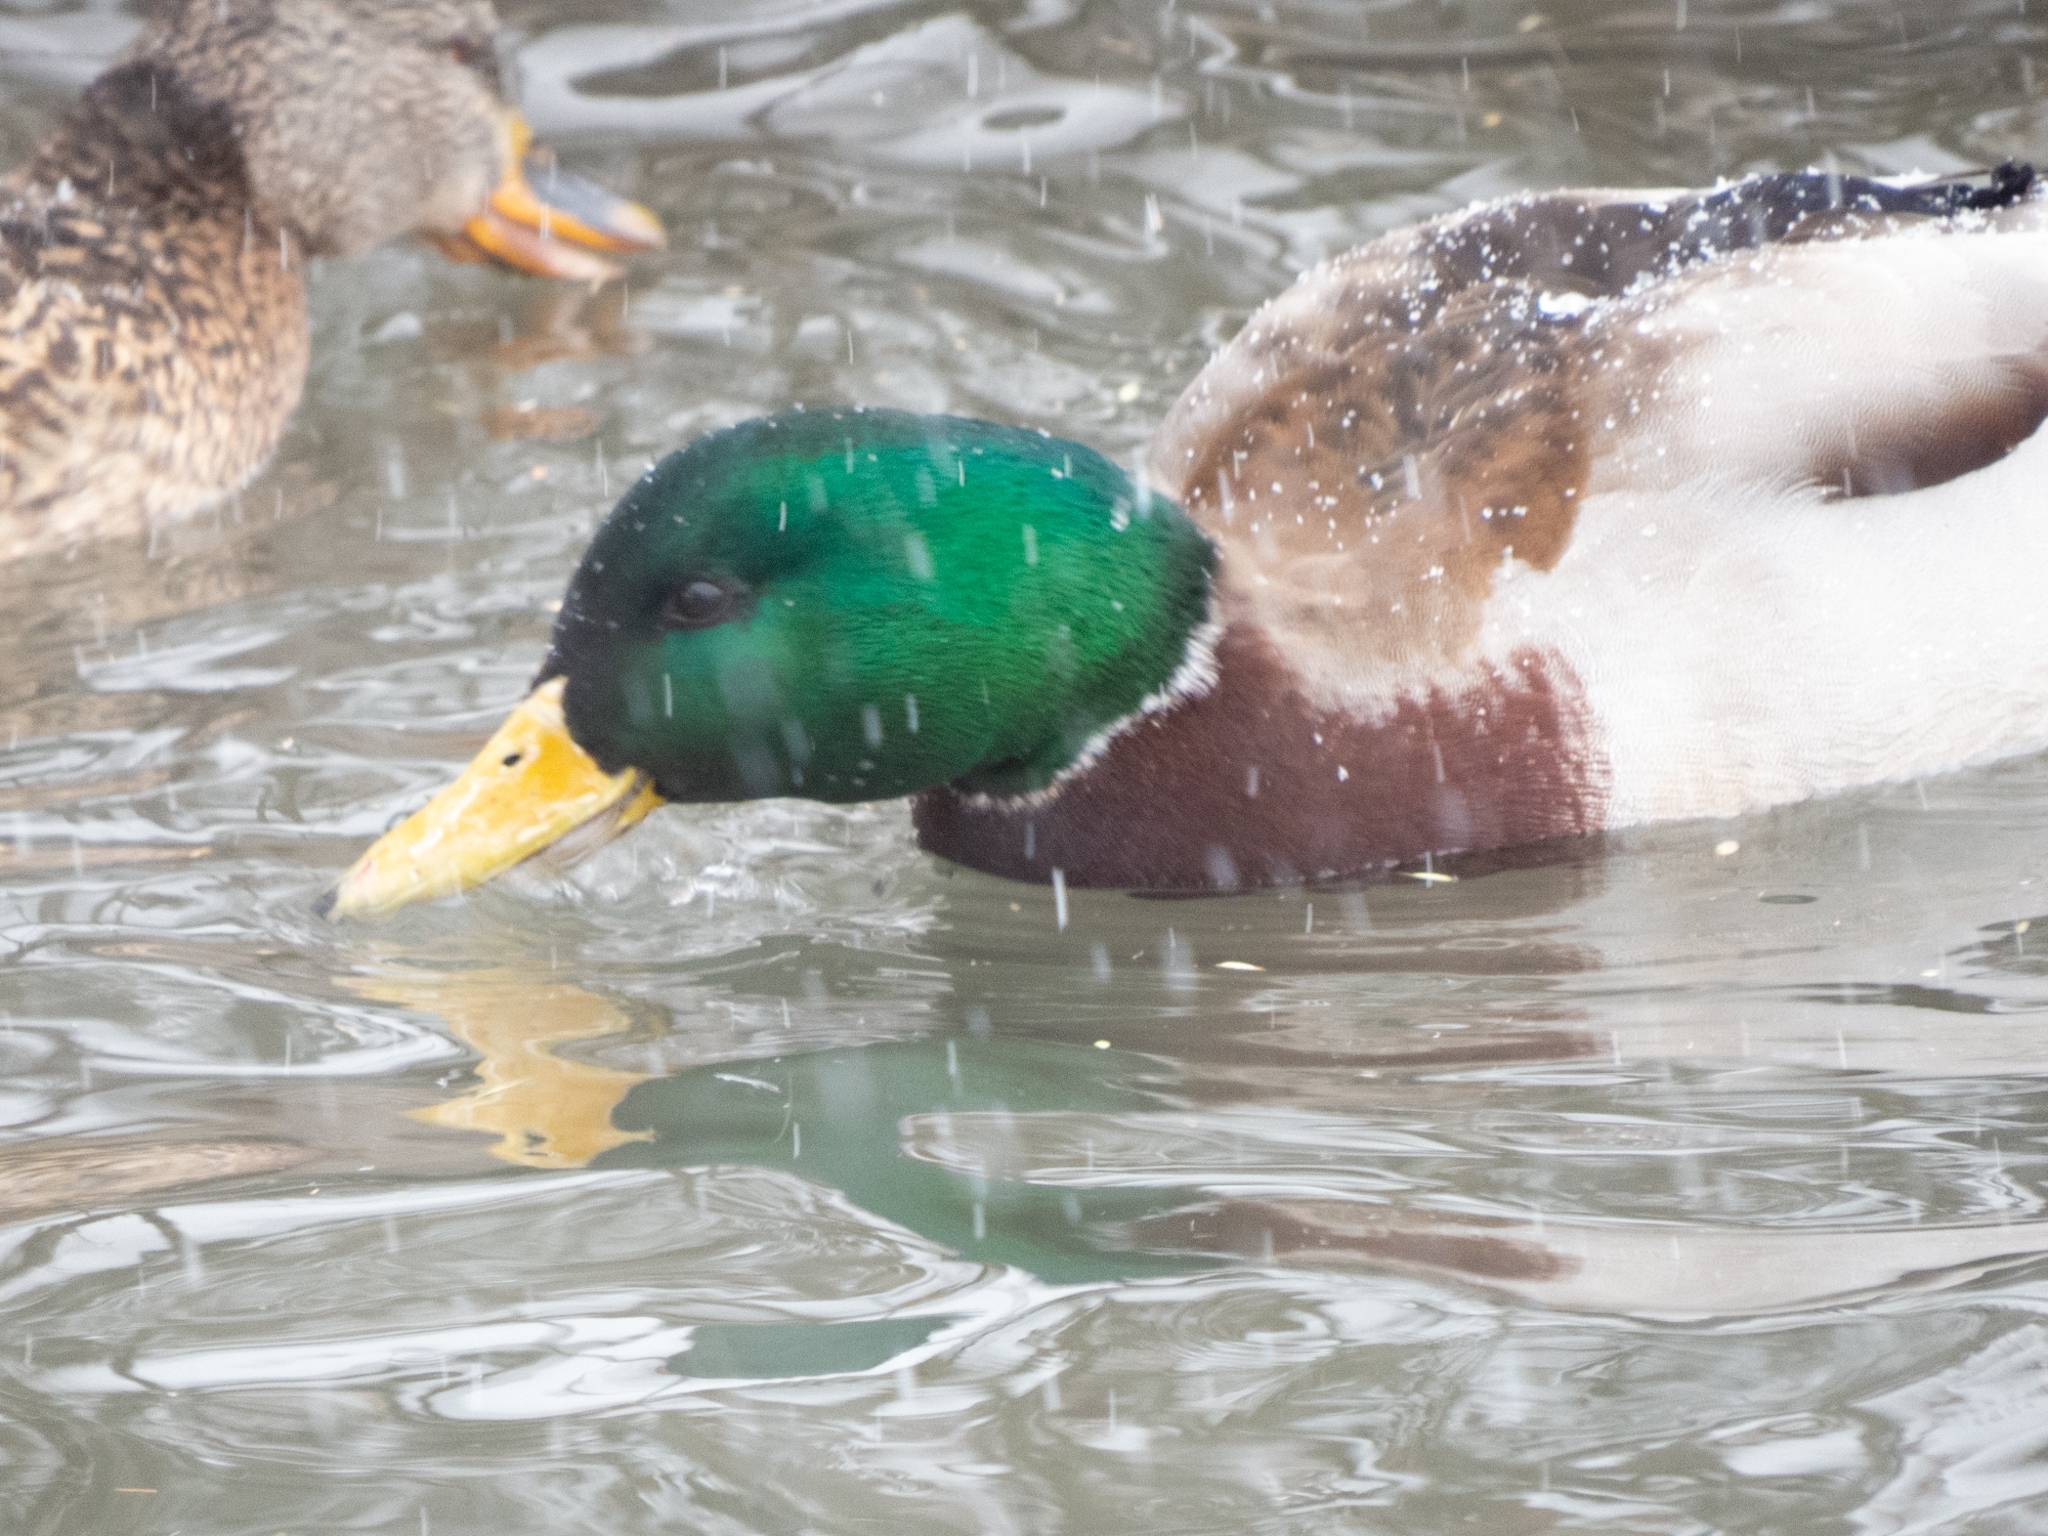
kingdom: Animalia
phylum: Chordata
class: Aves
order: Anseriformes
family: Anatidae
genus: Anas
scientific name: Anas platyrhynchos
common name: Mallard
